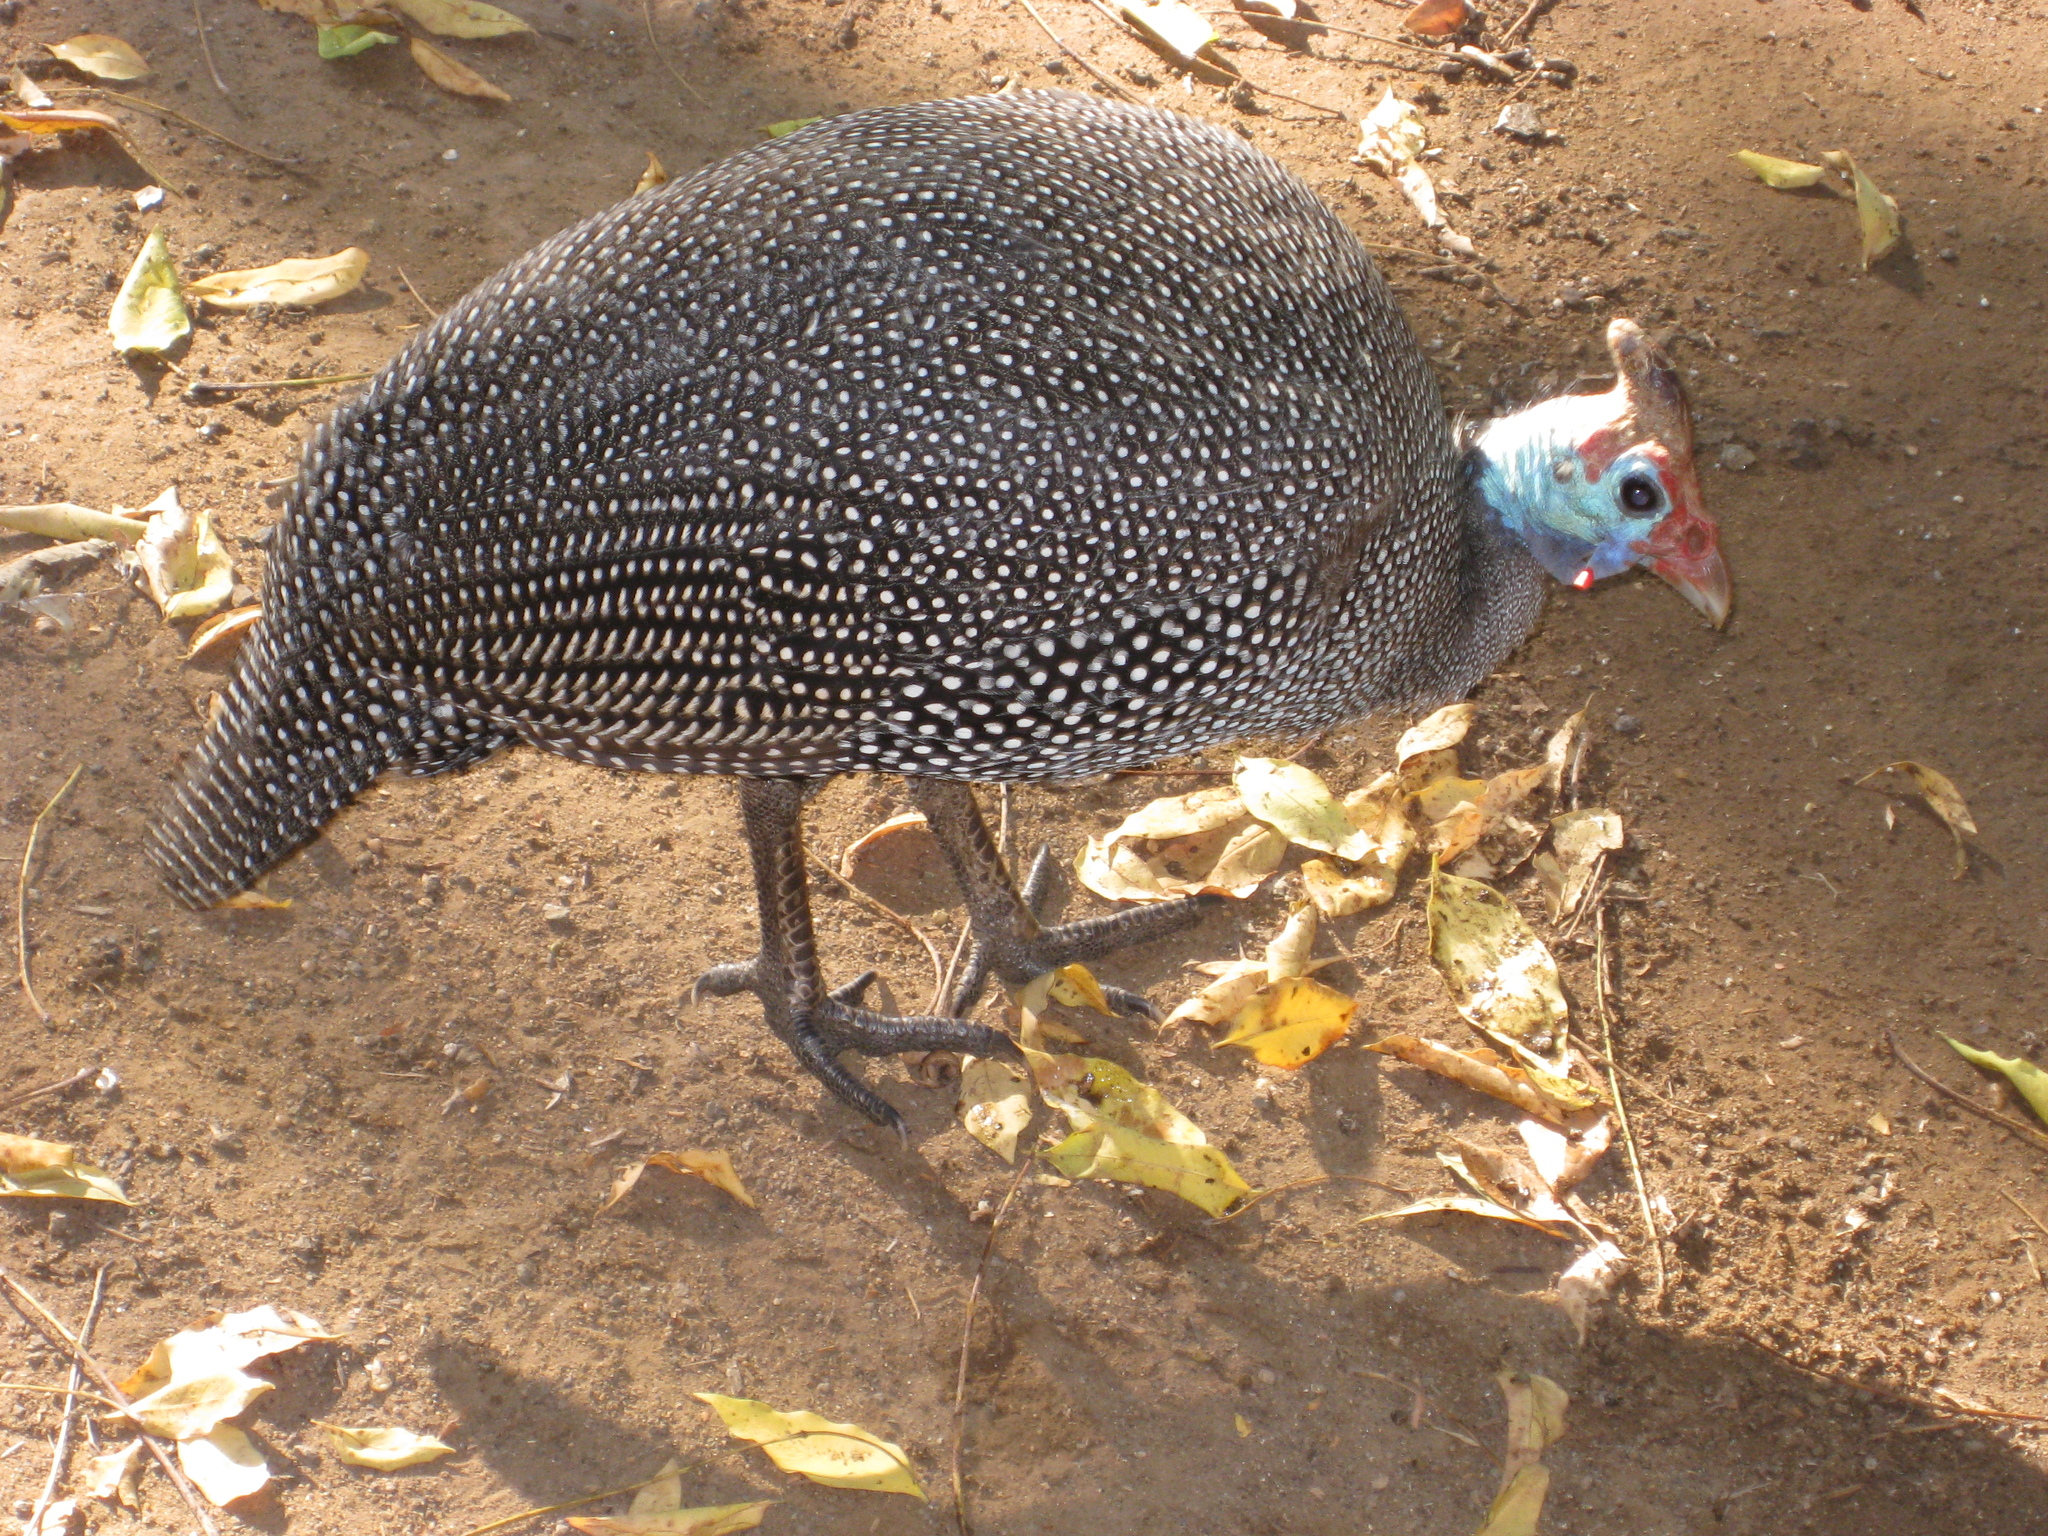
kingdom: Animalia
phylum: Chordata
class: Aves
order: Galliformes
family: Numididae
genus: Numida
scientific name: Numida meleagris
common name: Helmeted guineafowl
